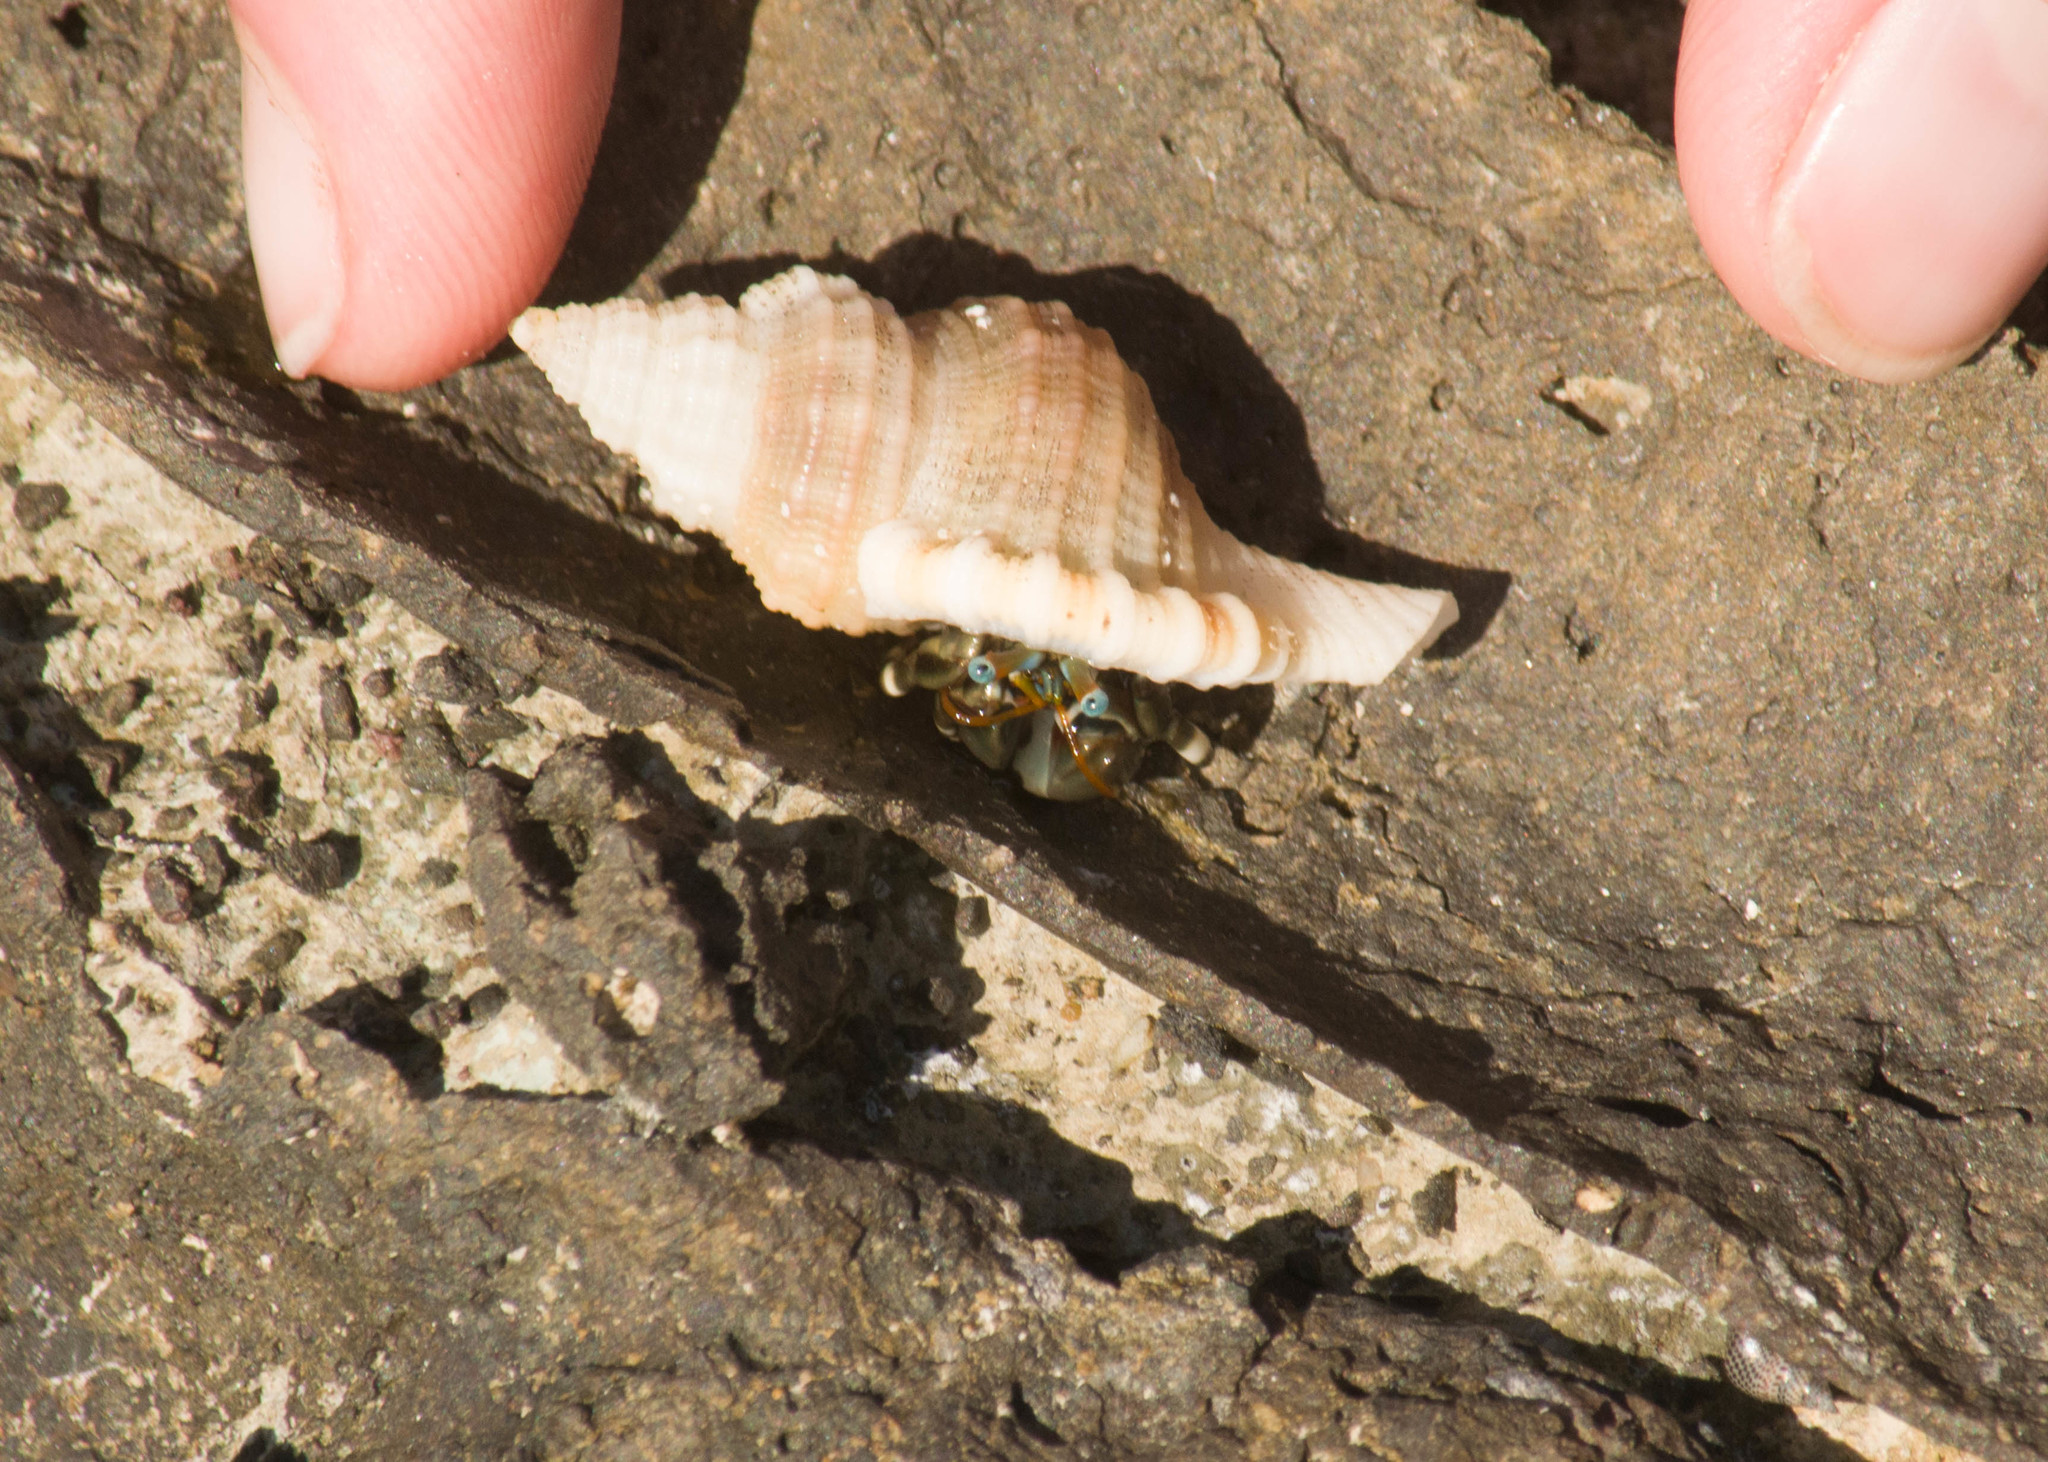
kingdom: Animalia
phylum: Arthropoda
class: Malacostraca
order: Decapoda
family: Diogenidae
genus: Calcinus
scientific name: Calcinus seurati
